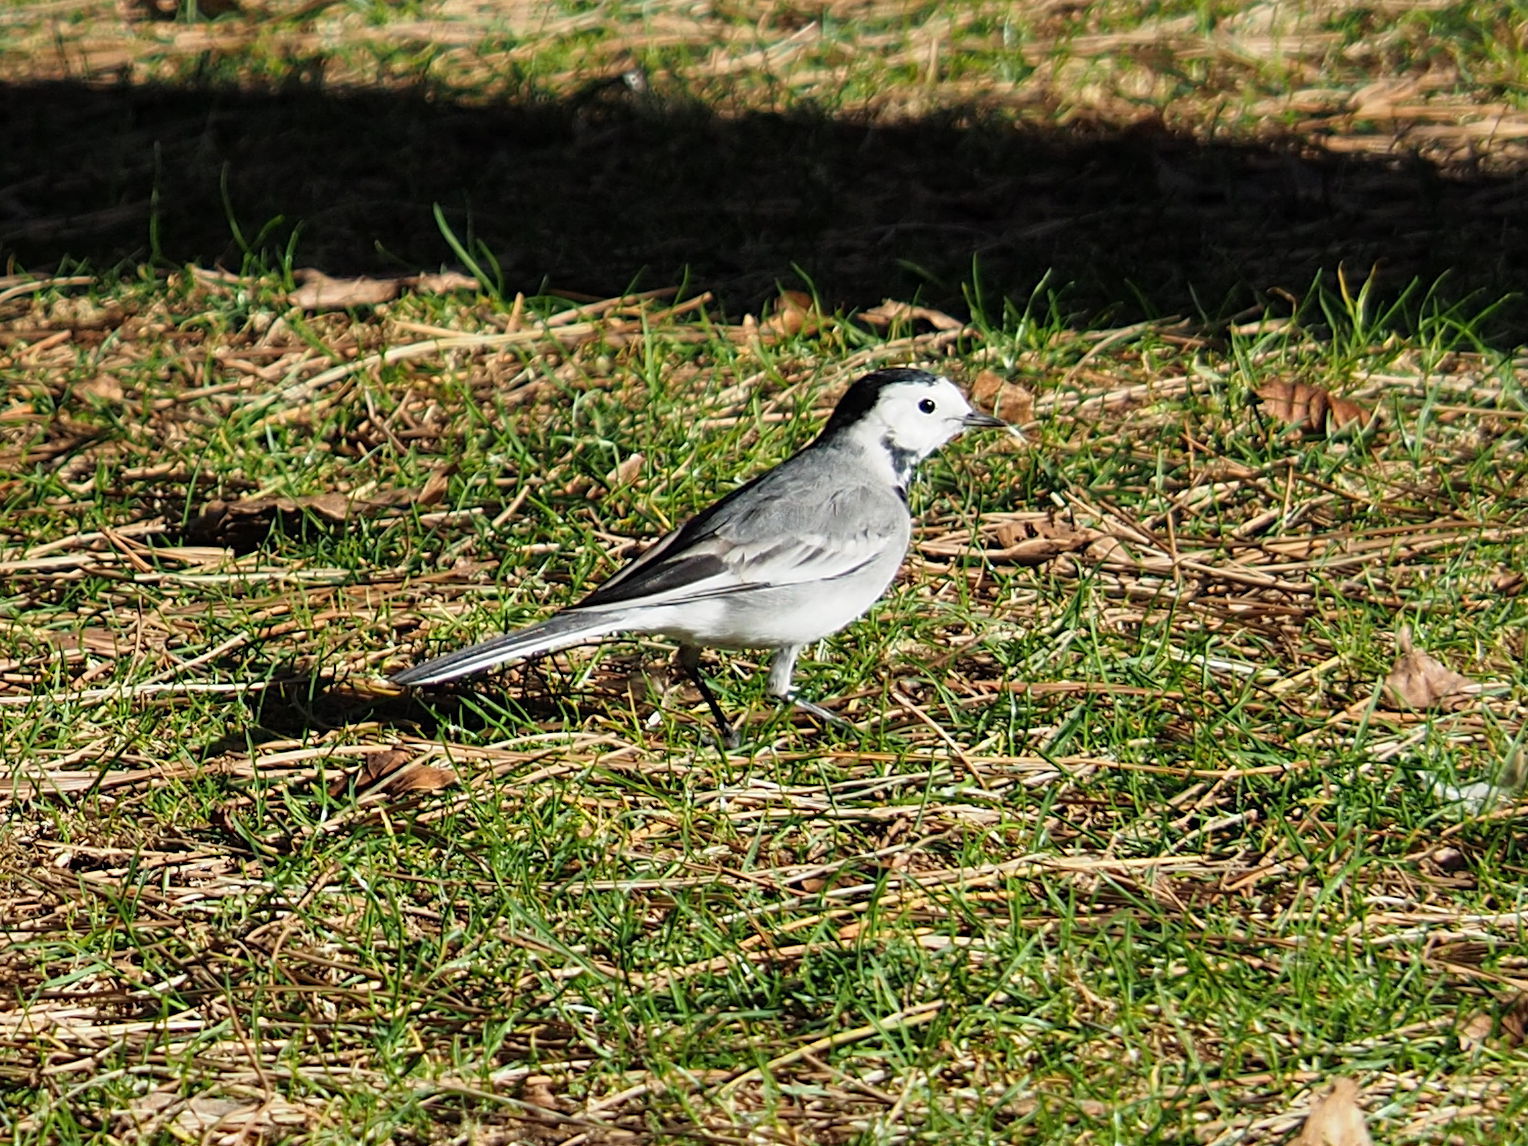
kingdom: Animalia
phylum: Chordata
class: Aves
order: Passeriformes
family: Motacillidae
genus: Motacilla
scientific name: Motacilla alba
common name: White wagtail
